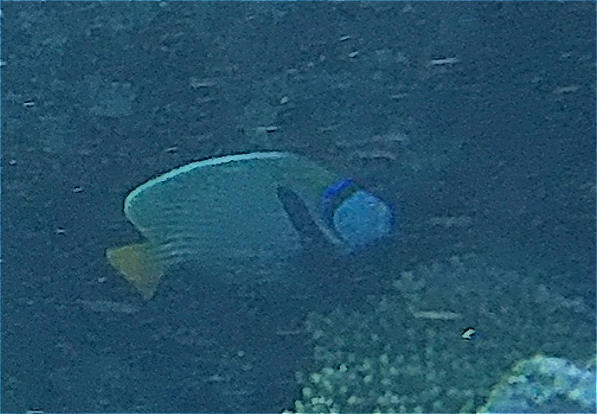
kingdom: Animalia
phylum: Chordata
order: Perciformes
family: Pomacanthidae
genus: Pomacanthus
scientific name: Pomacanthus imperator
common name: Emperor angelfish
